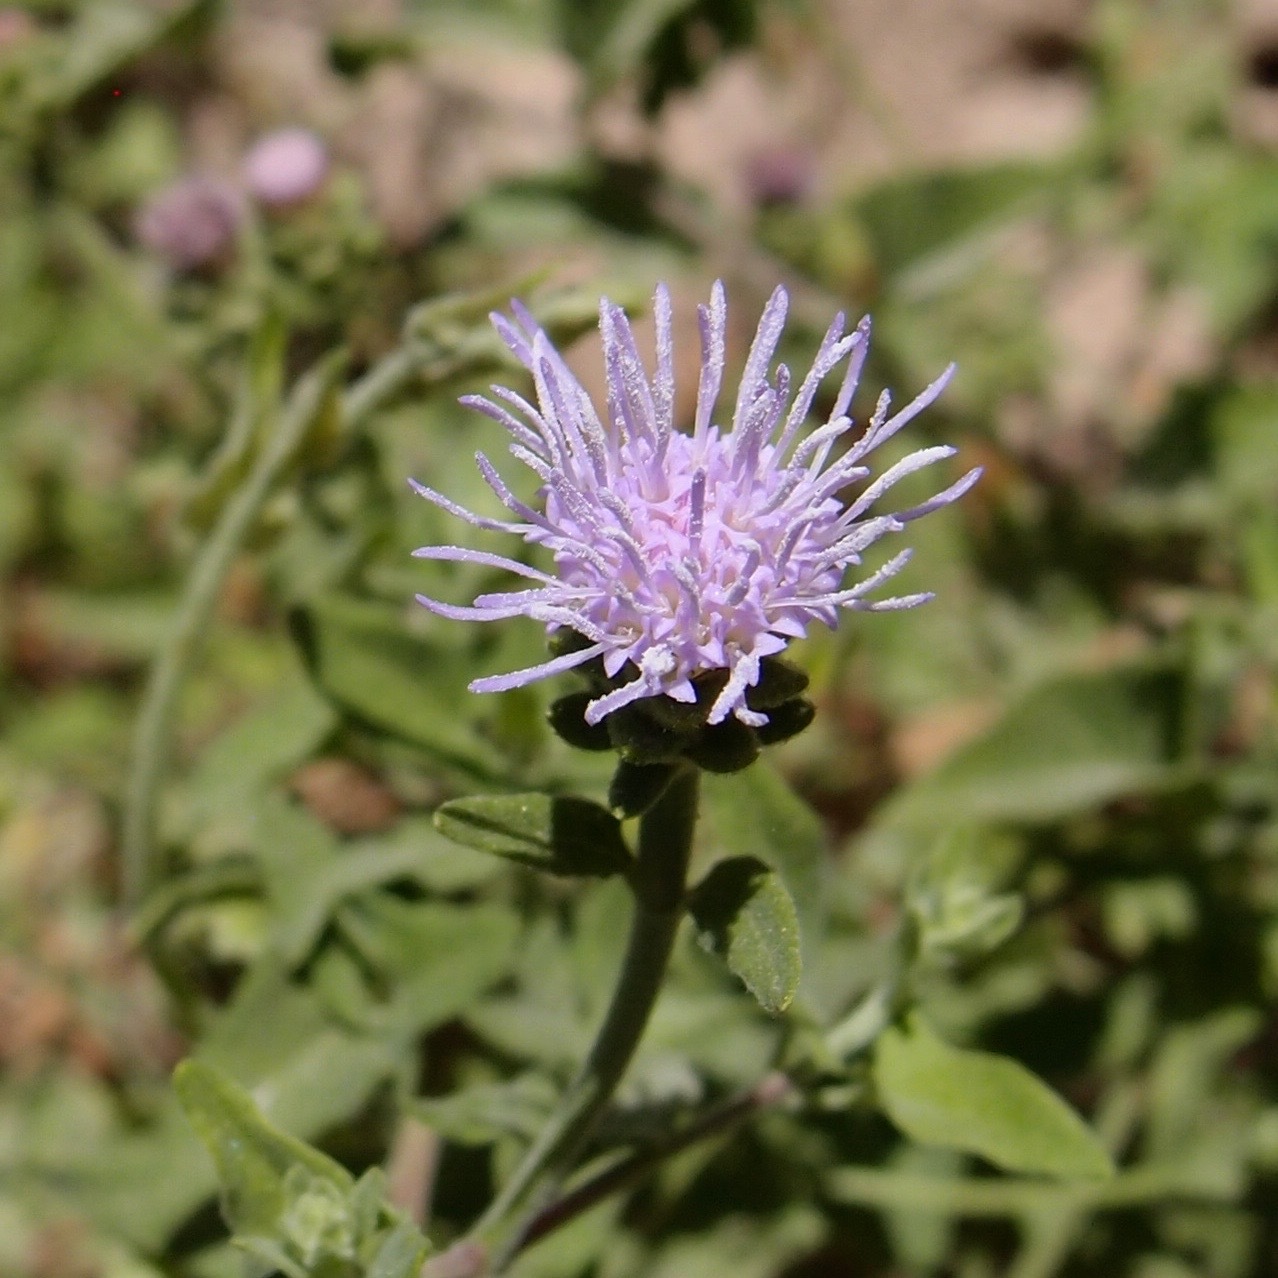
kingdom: Plantae
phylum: Tracheophyta
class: Magnoliopsida
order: Asterales
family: Asteraceae
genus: Chromolaena
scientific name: Chromolaena sagittata
